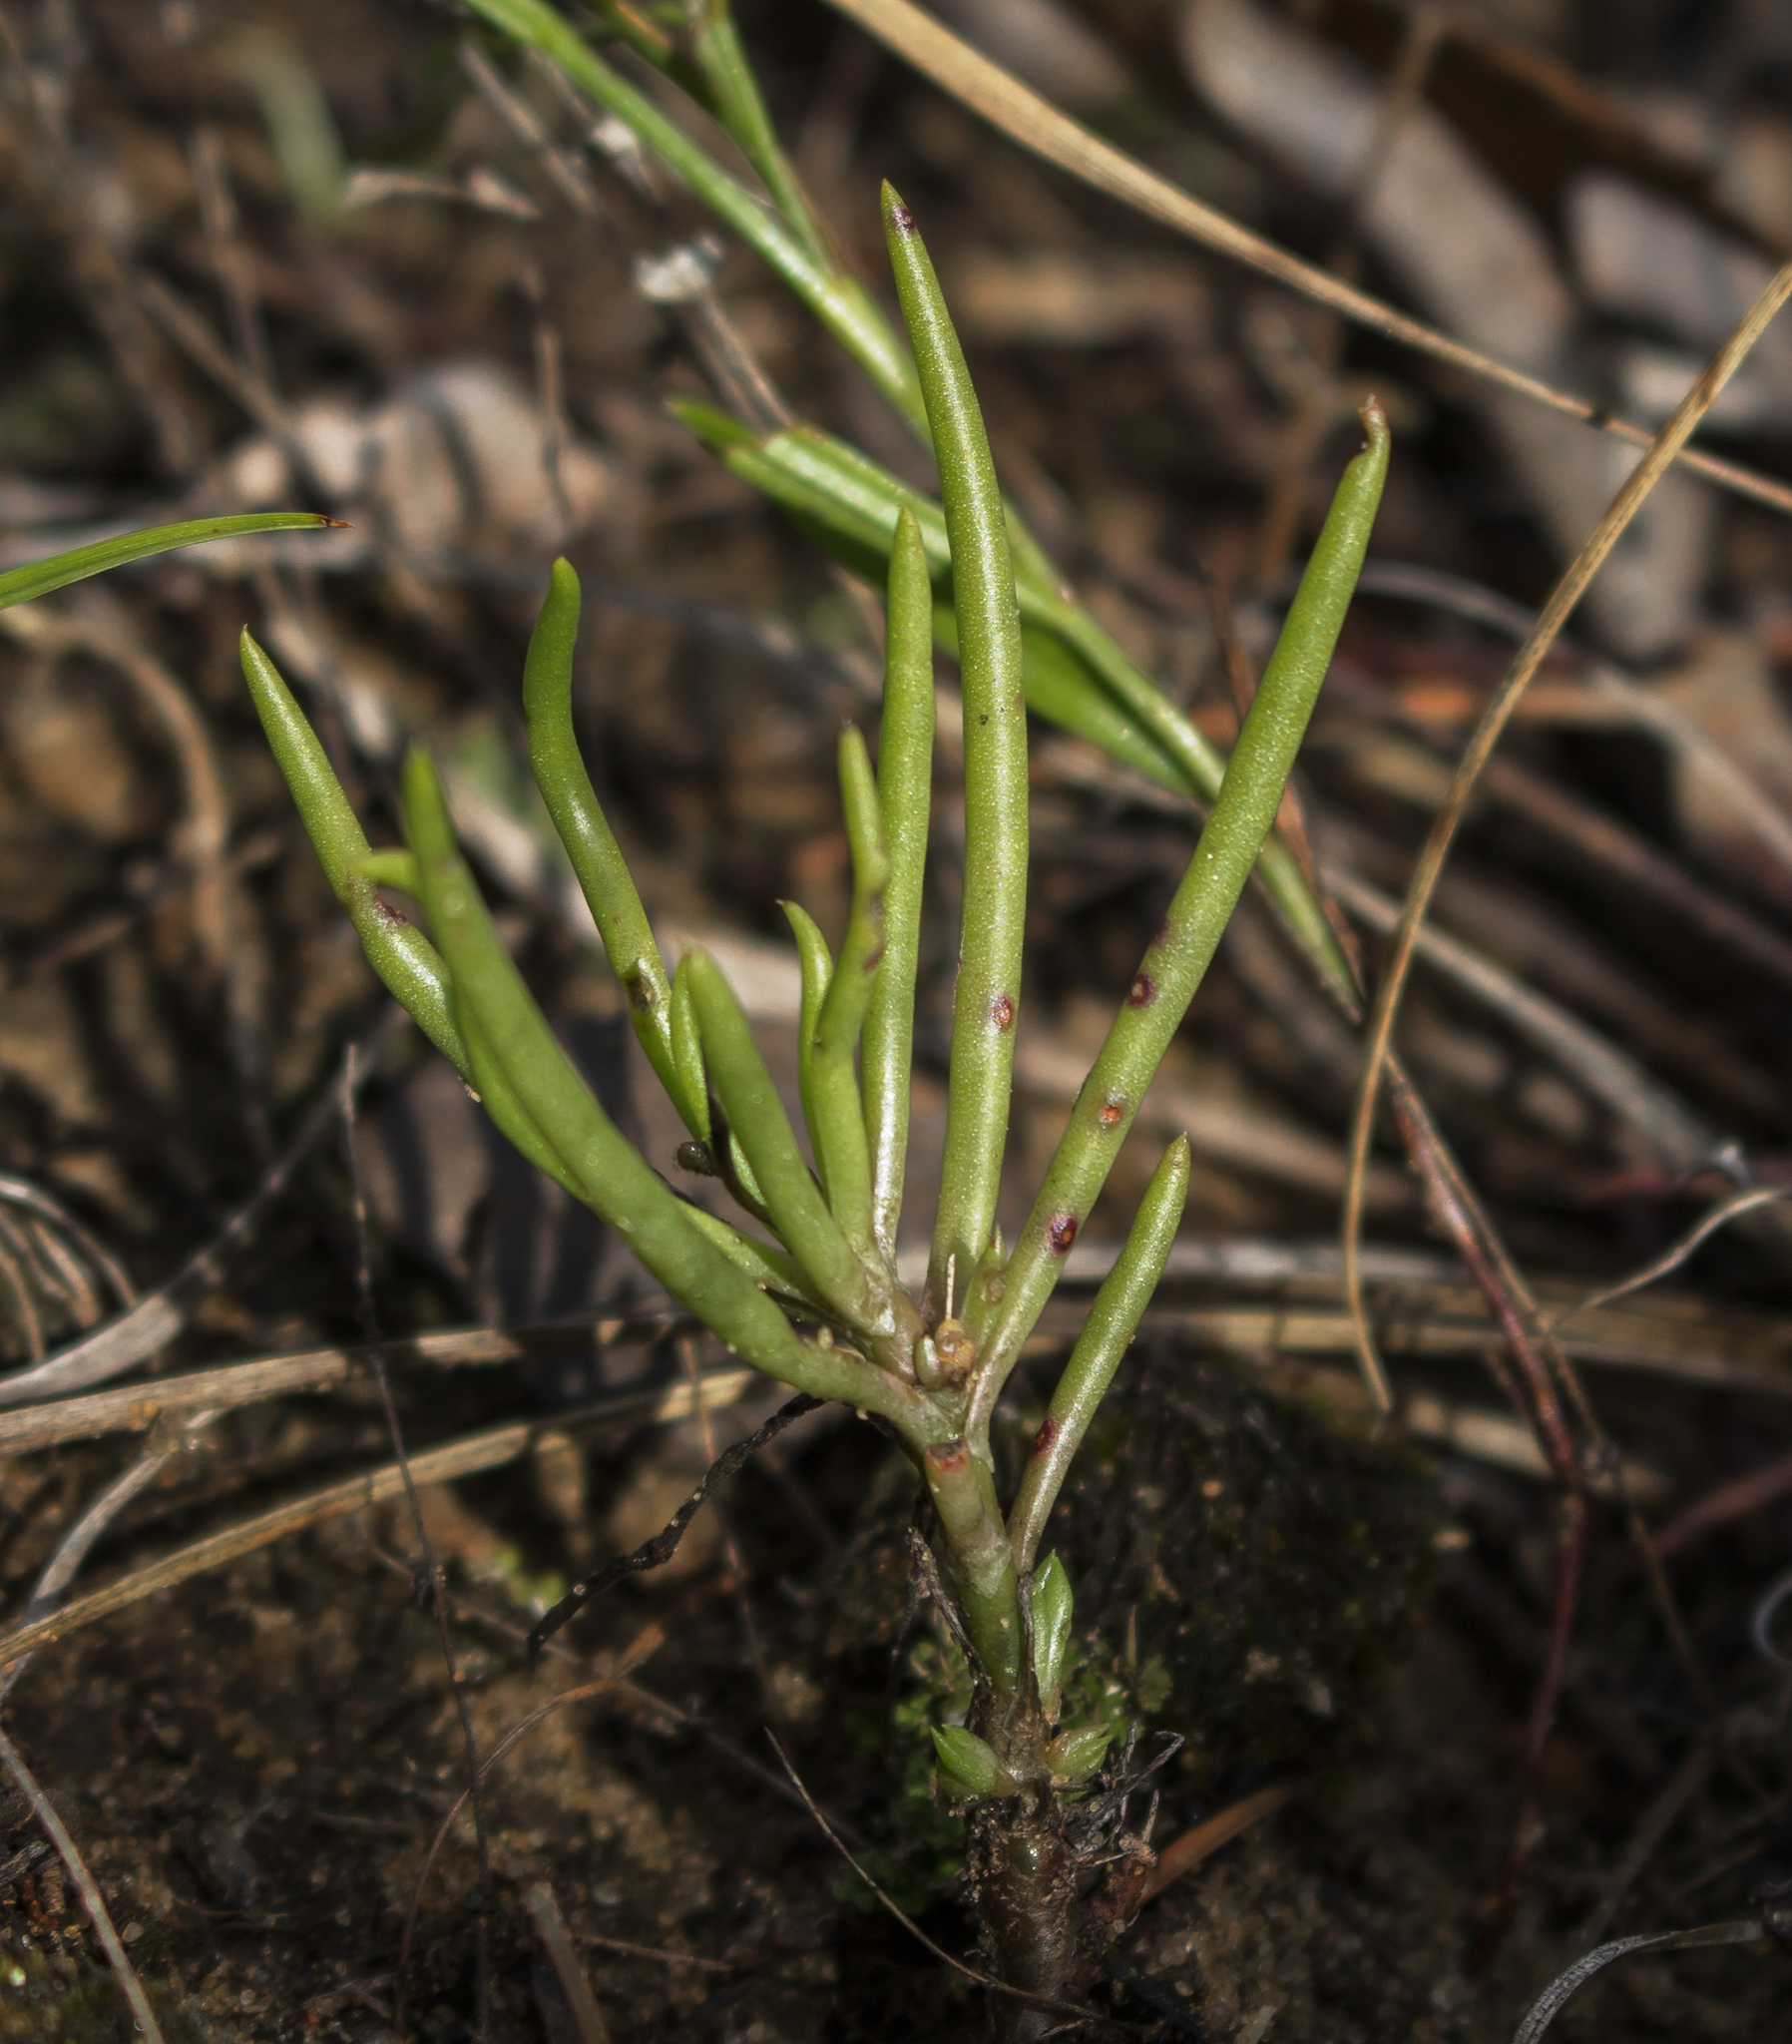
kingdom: Plantae
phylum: Tracheophyta
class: Magnoliopsida
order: Caryophyllales
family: Montiaceae
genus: Phemeranthus
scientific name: Phemeranthus rugospermus
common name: Prairie fameflower
